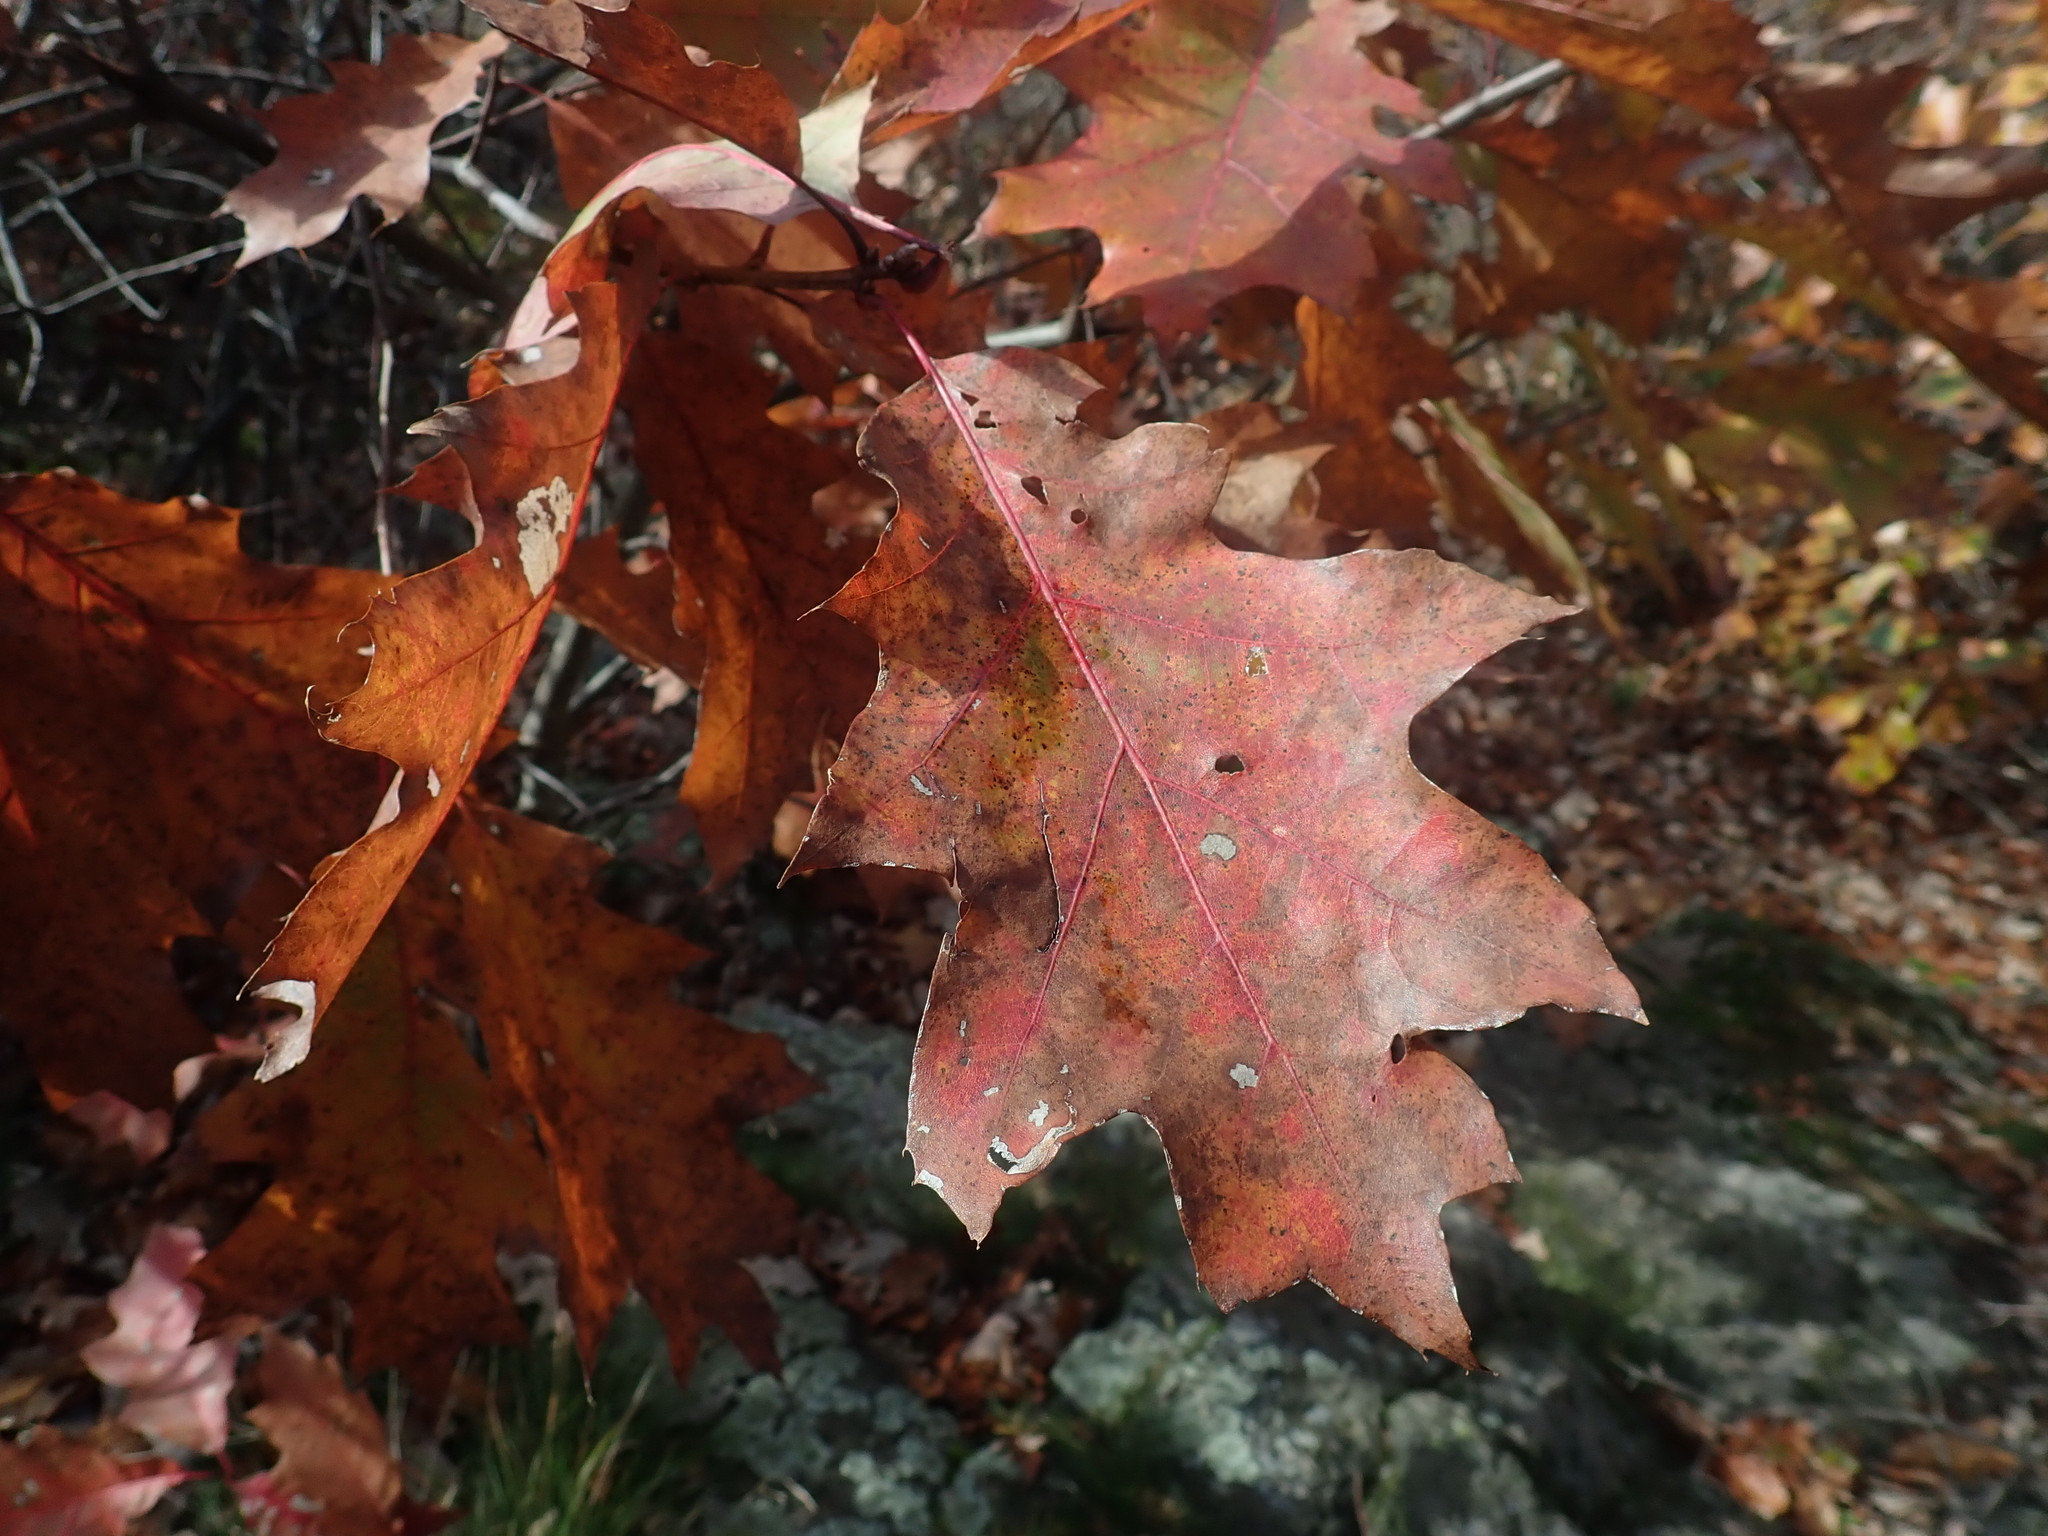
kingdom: Plantae
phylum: Tracheophyta
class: Magnoliopsida
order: Fagales
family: Fagaceae
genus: Quercus
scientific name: Quercus rubra
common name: Red oak
